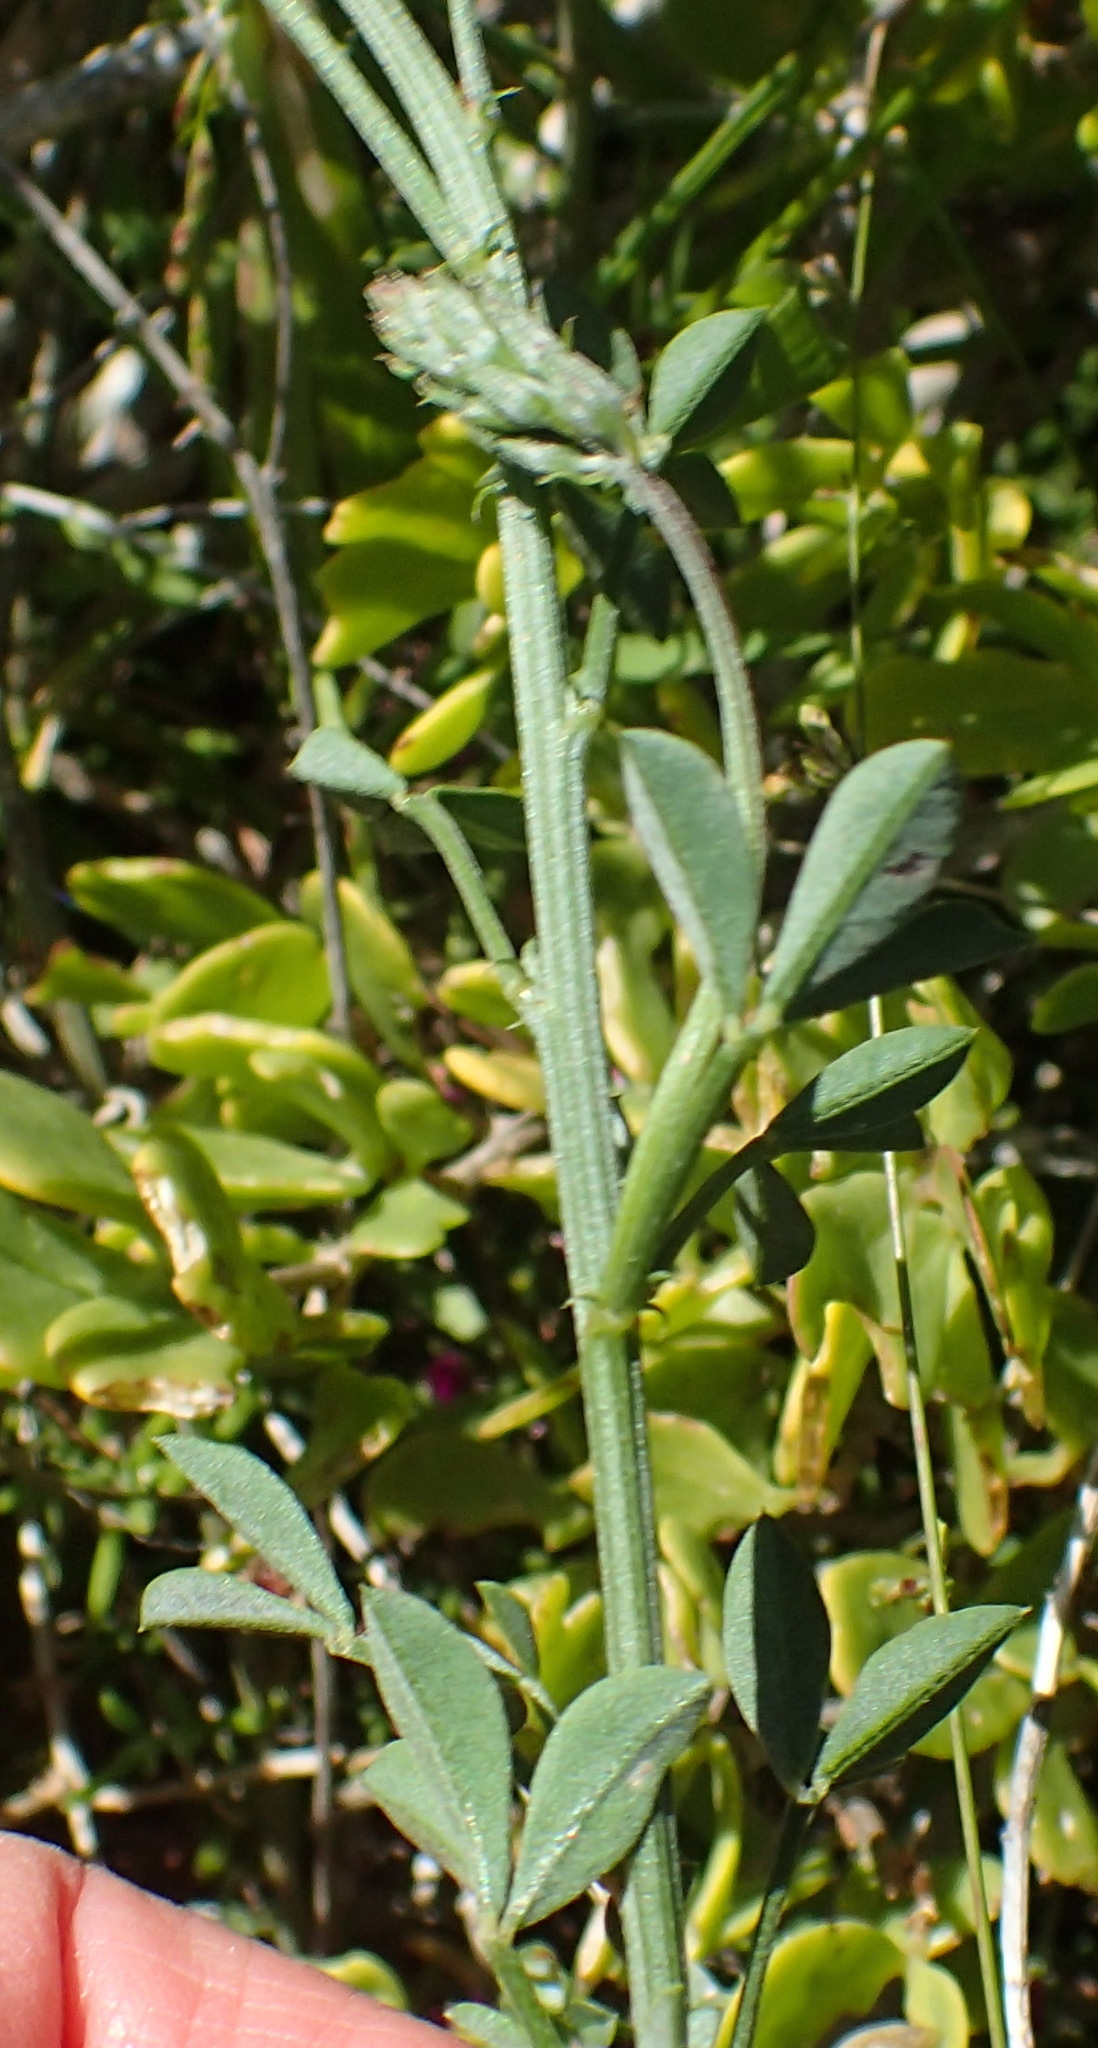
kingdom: Plantae
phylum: Tracheophyta
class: Magnoliopsida
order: Fabales
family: Fabaceae
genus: Indigofera
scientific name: Indigofera porrecta
